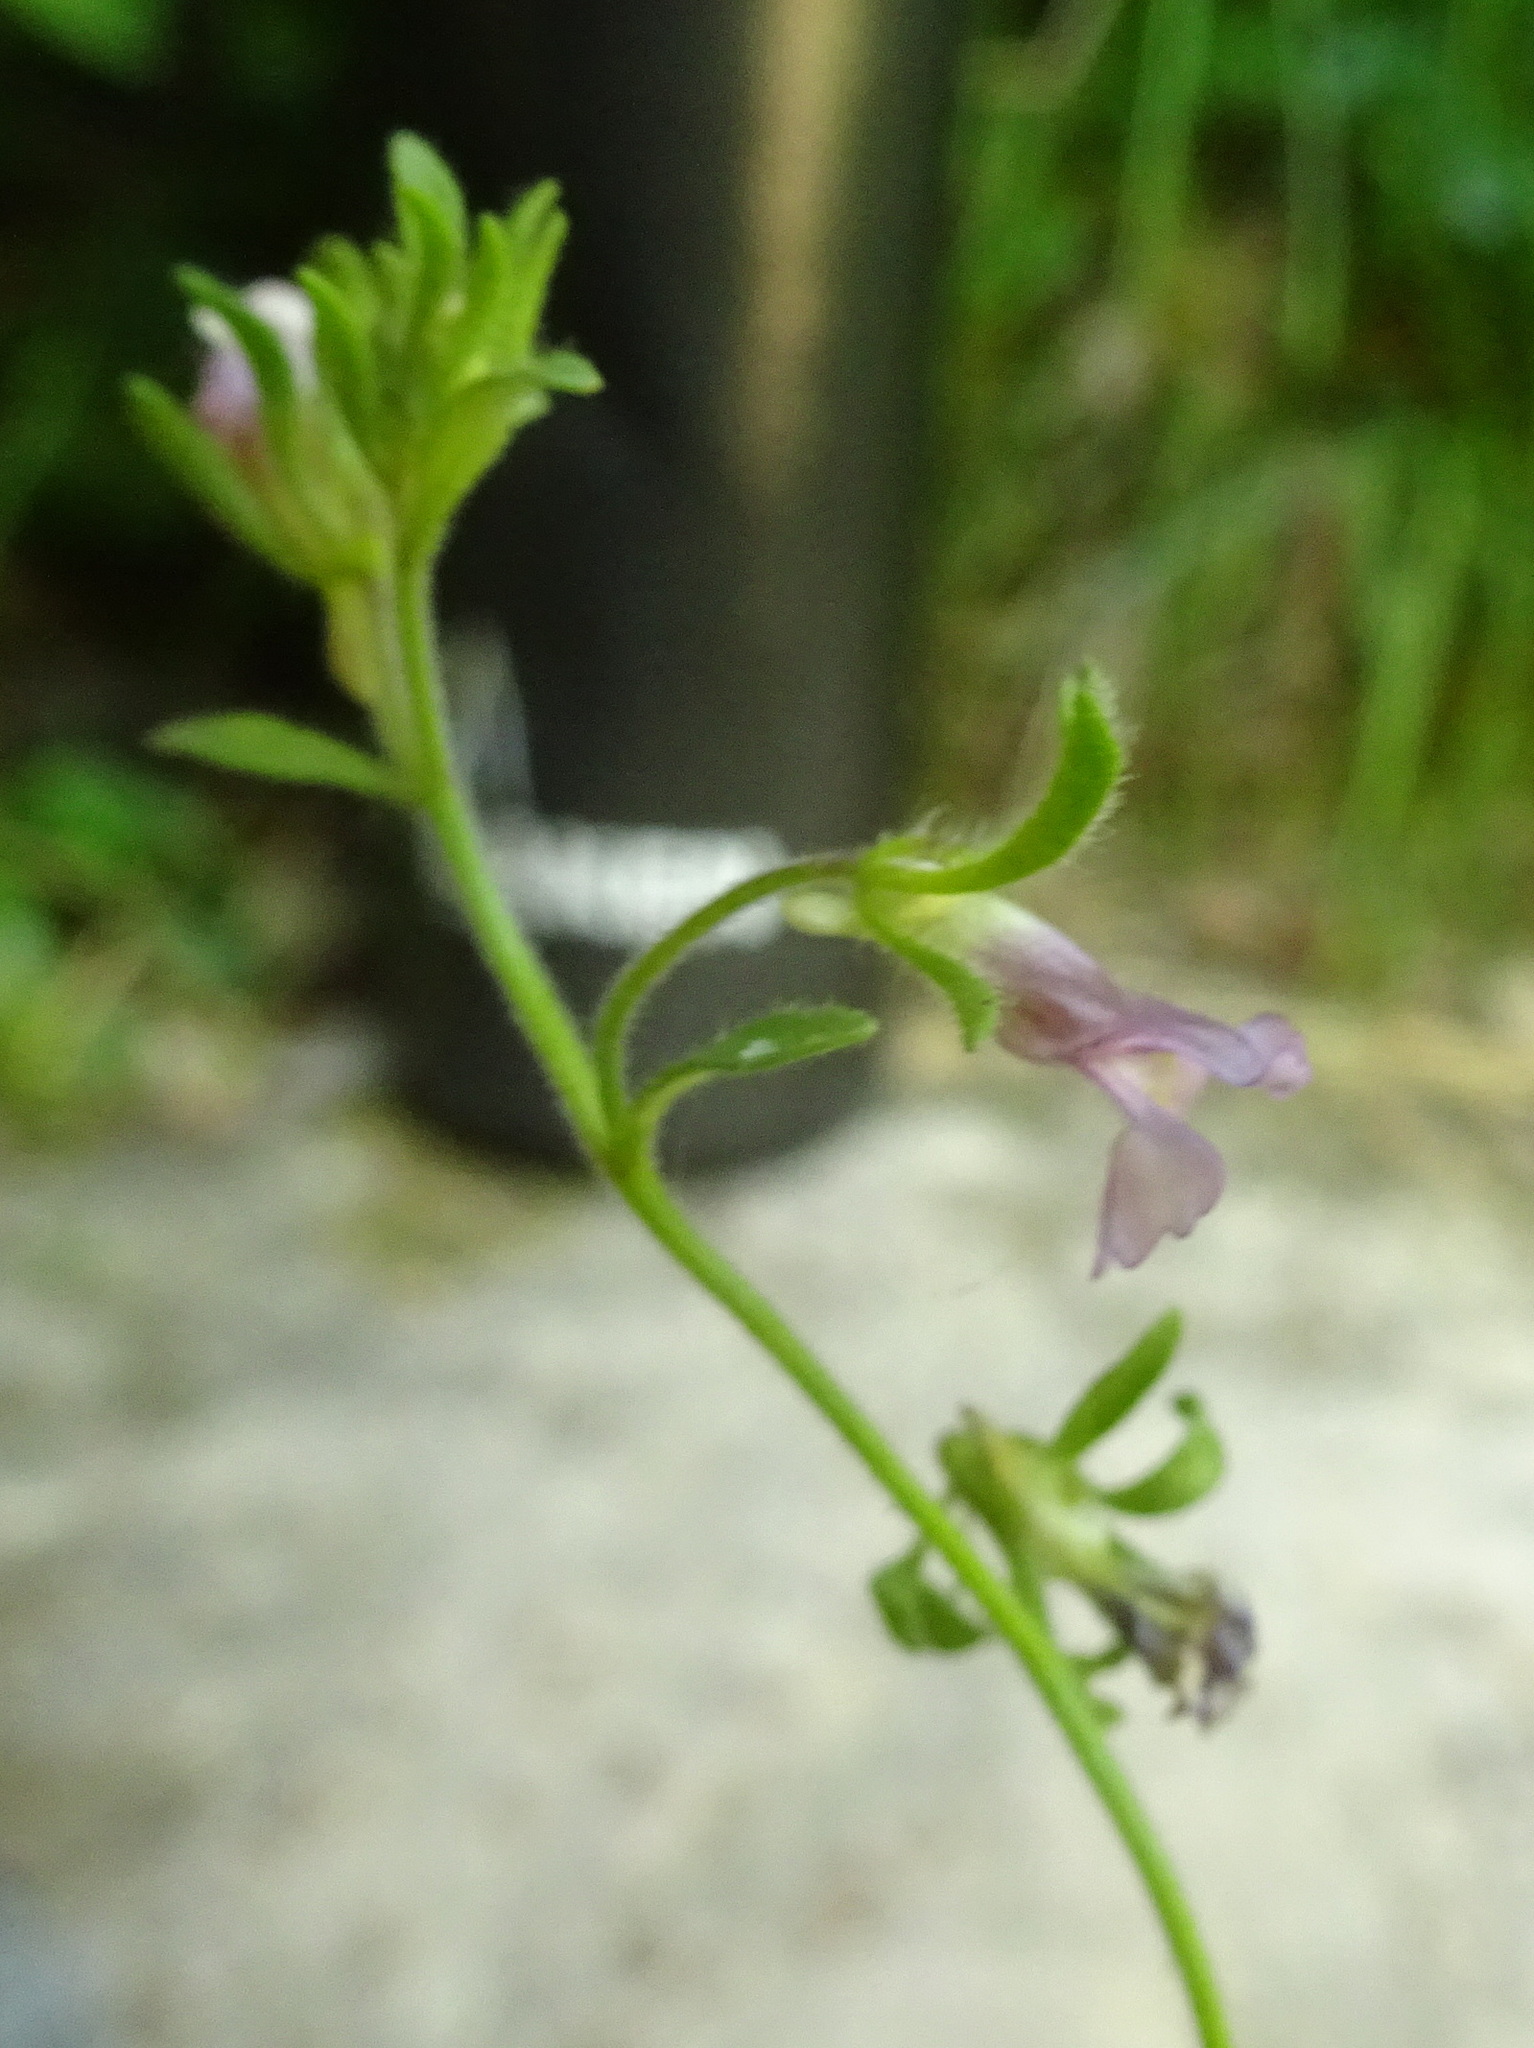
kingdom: Plantae
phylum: Tracheophyta
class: Magnoliopsida
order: Lamiales
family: Plantaginaceae
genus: Chaenorhinum
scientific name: Chaenorhinum origanifolium
